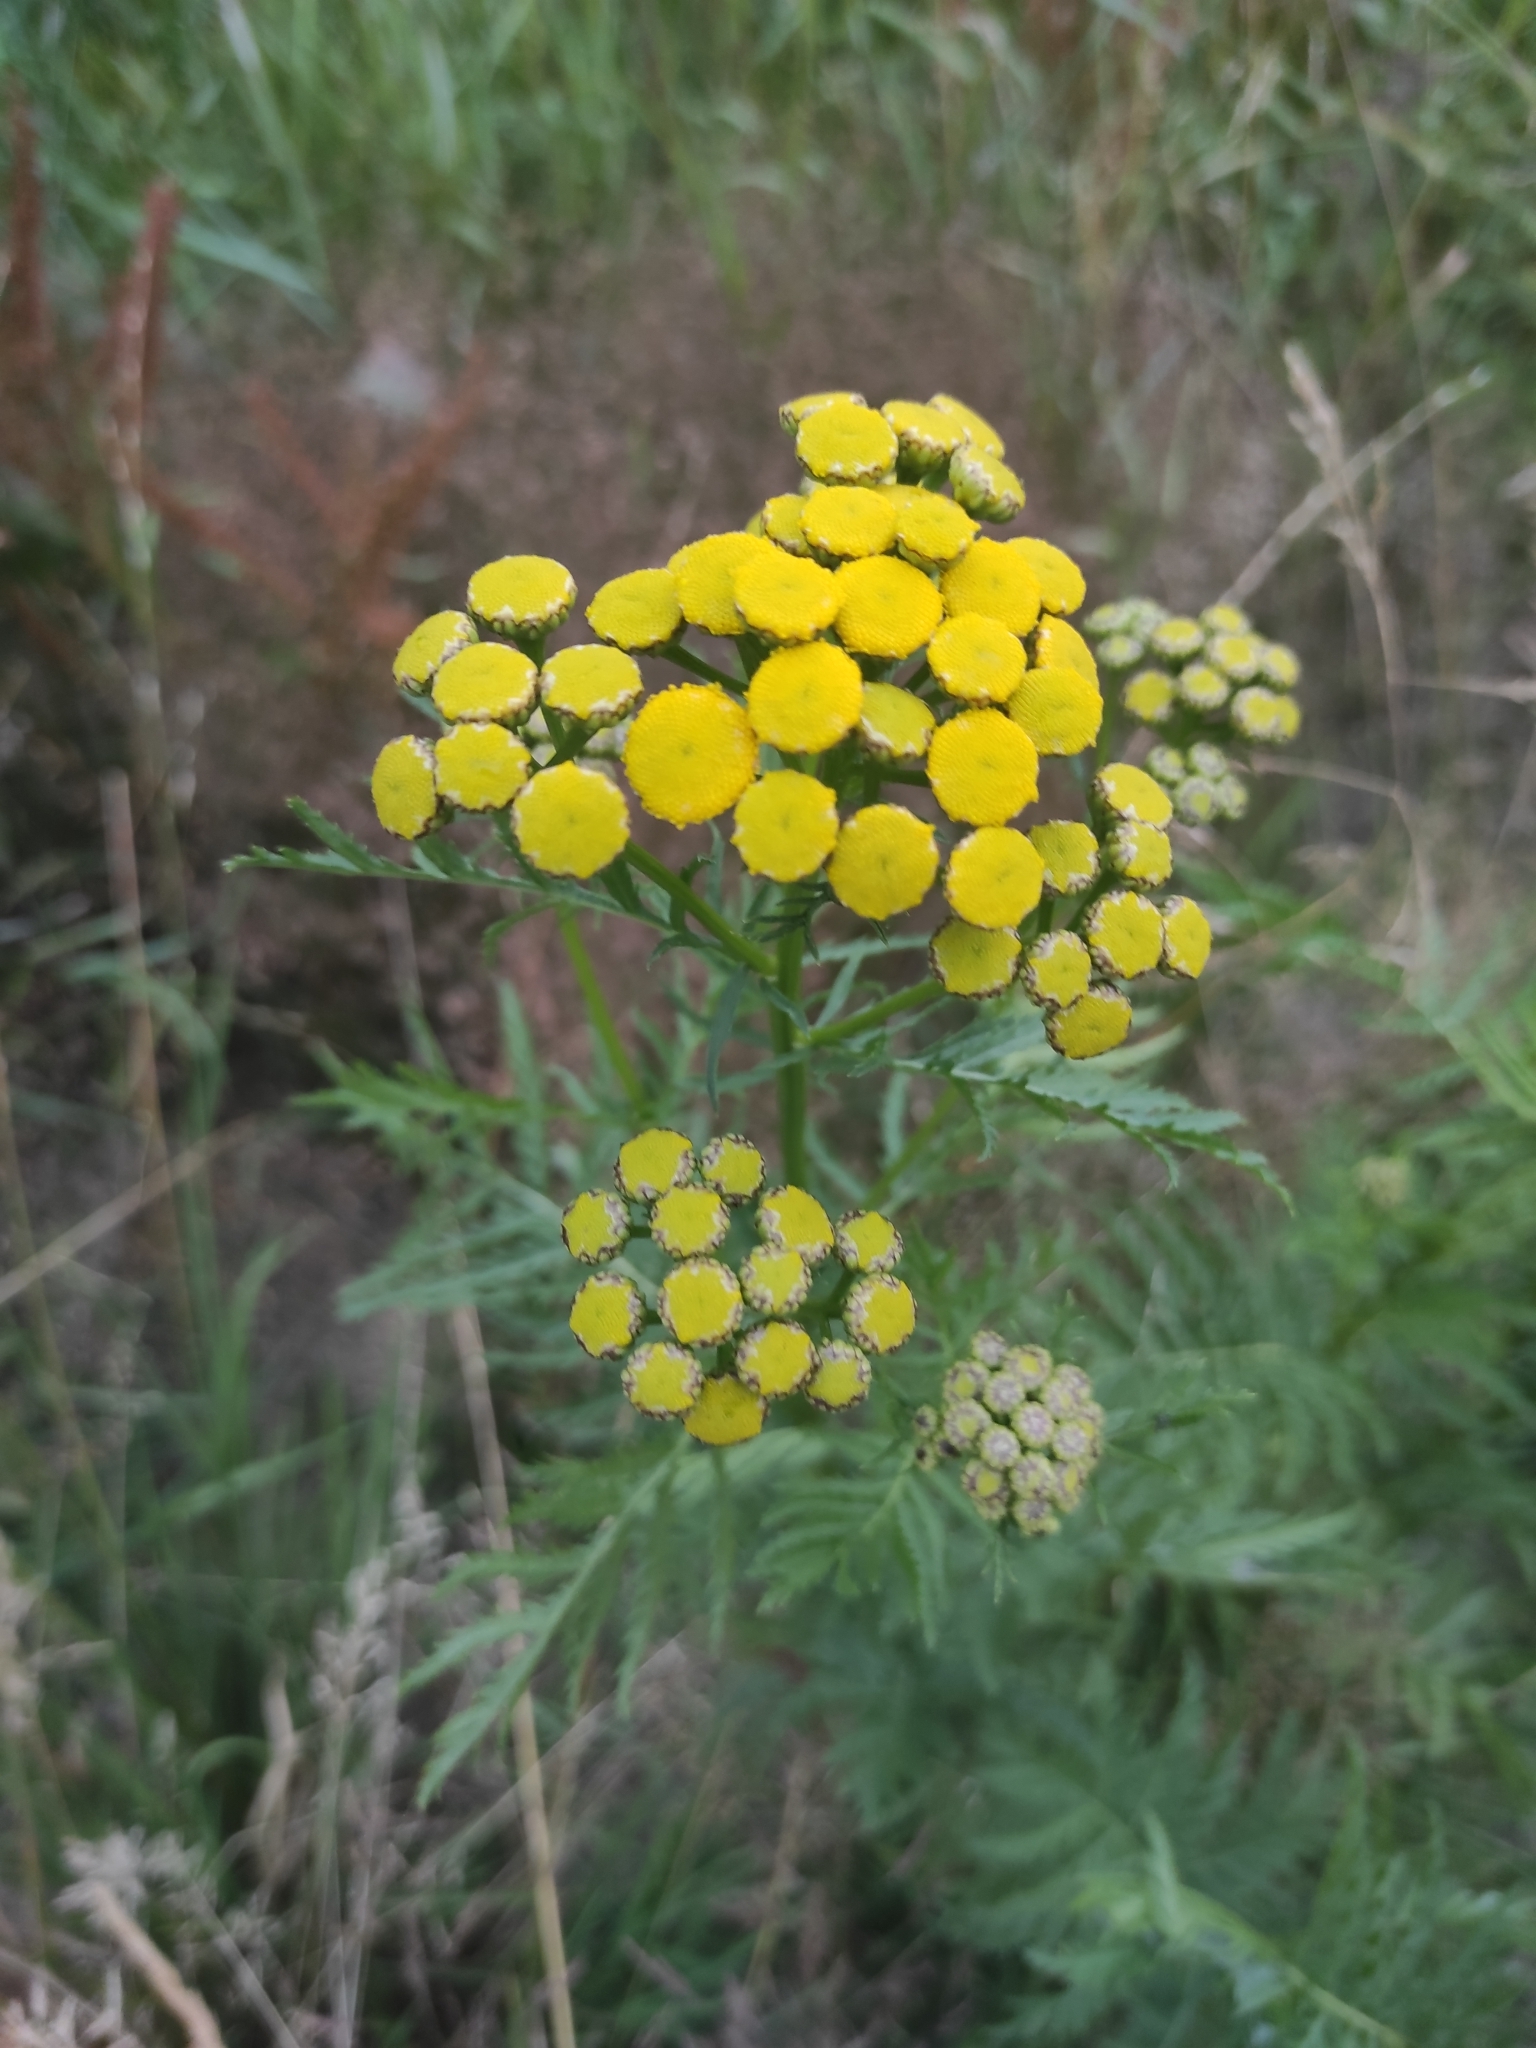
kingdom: Plantae
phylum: Tracheophyta
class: Magnoliopsida
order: Asterales
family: Asteraceae
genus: Tanacetum
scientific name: Tanacetum vulgare
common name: Common tansy
